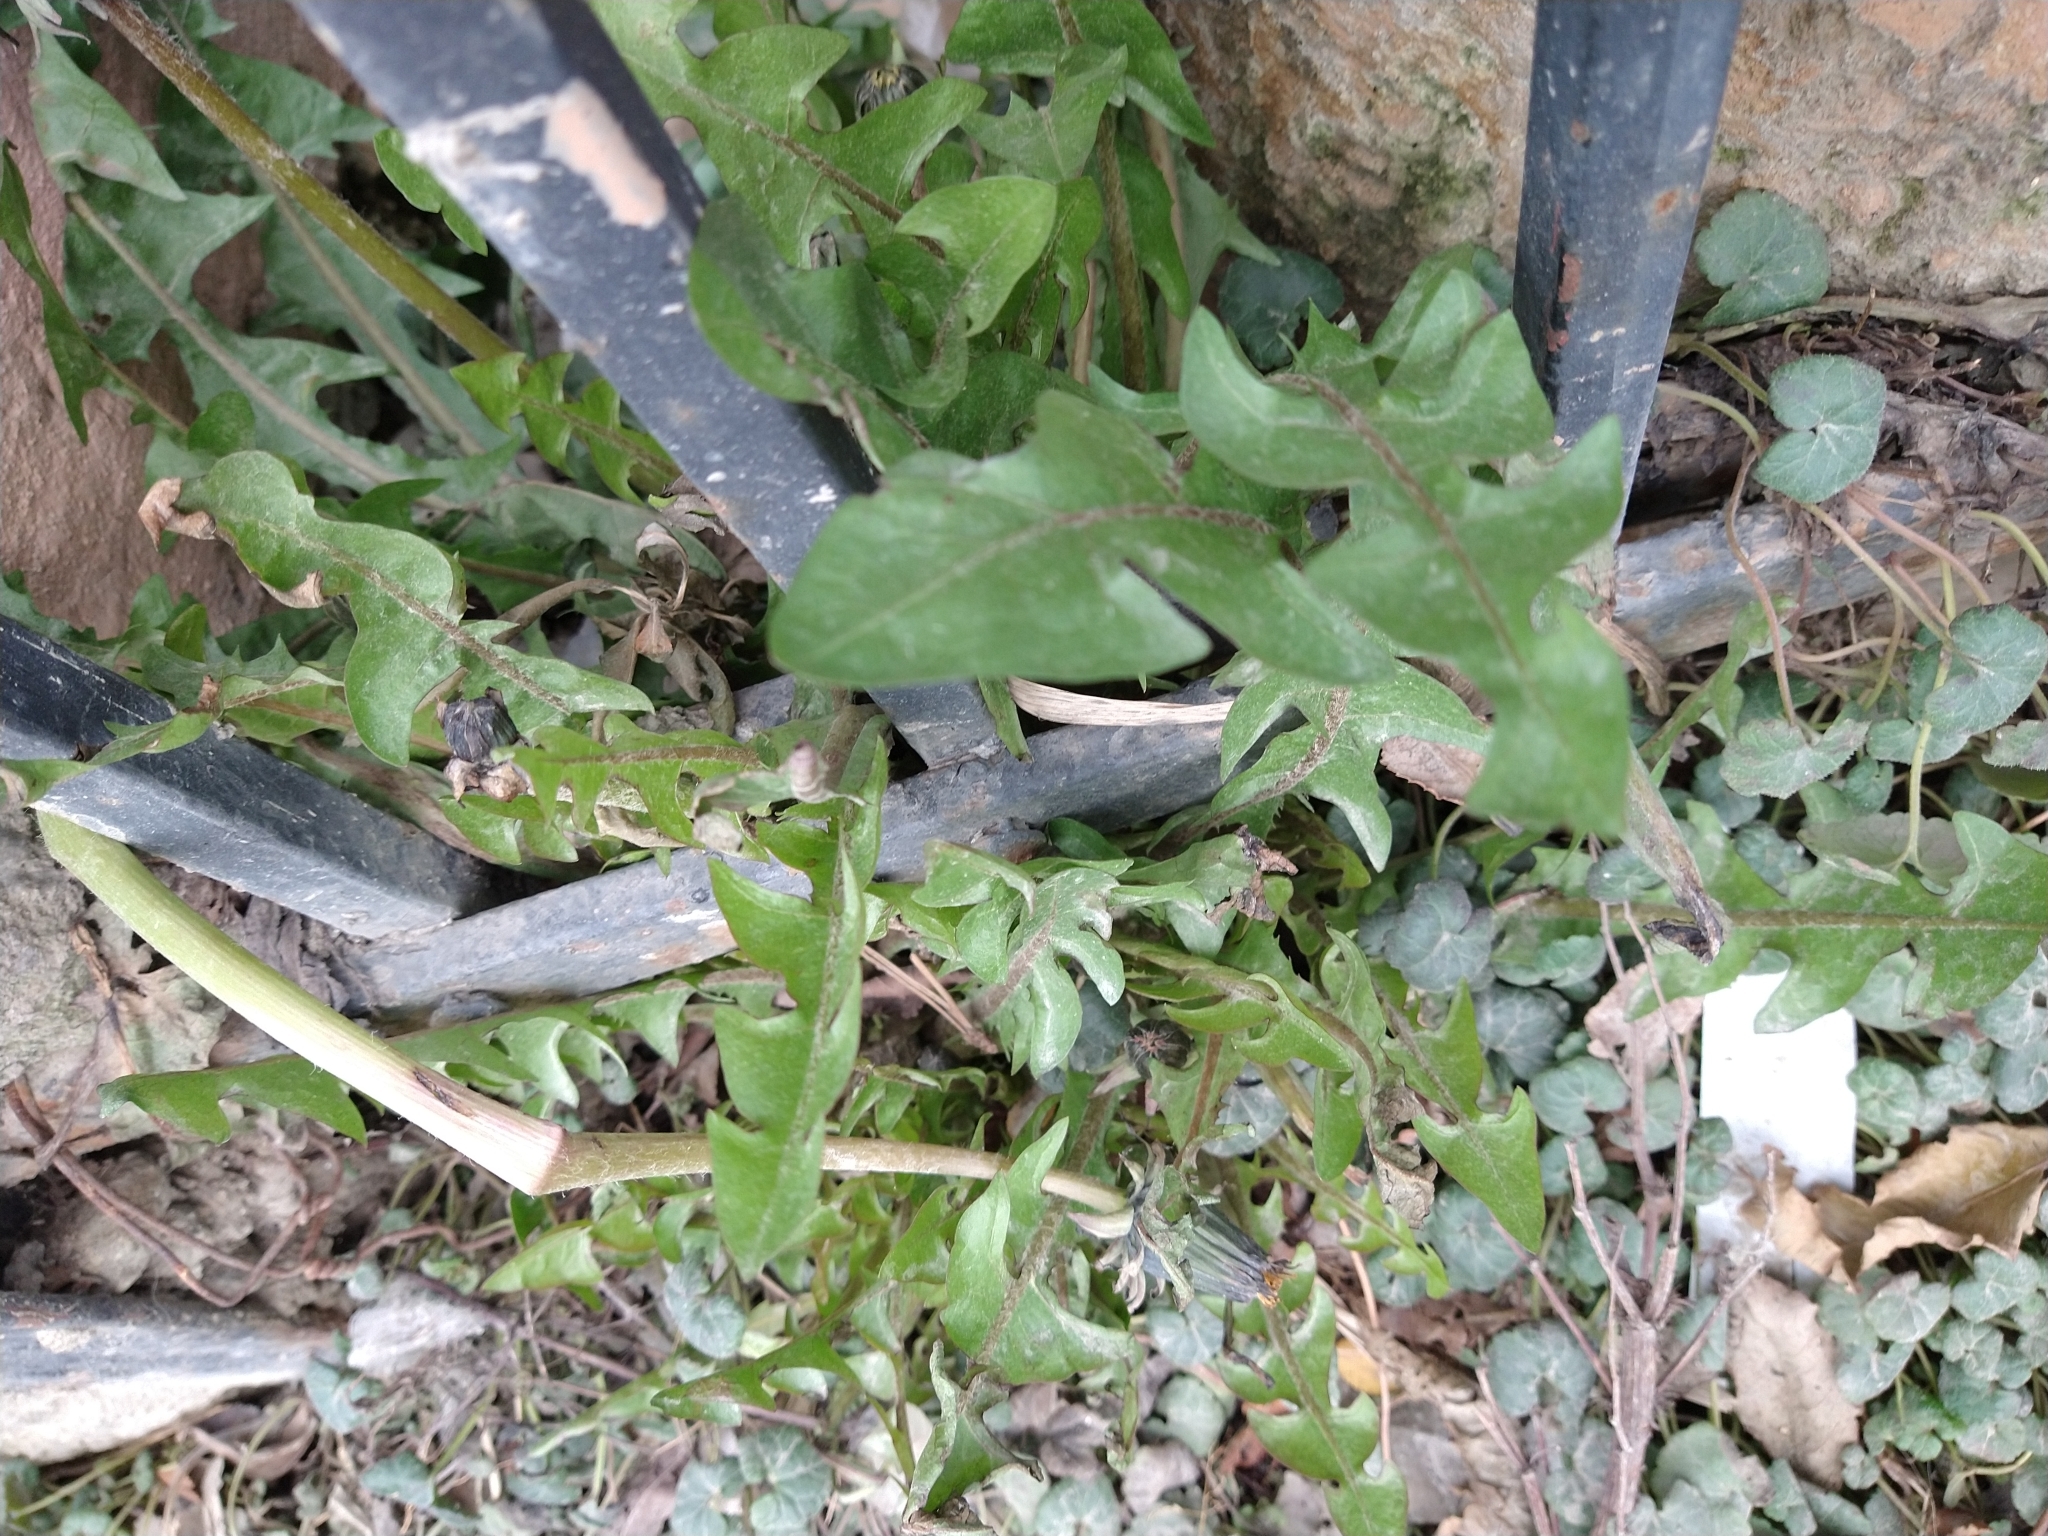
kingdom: Plantae
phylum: Tracheophyta
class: Magnoliopsida
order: Asterales
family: Asteraceae
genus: Taraxacum
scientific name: Taraxacum officinale
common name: Common dandelion
